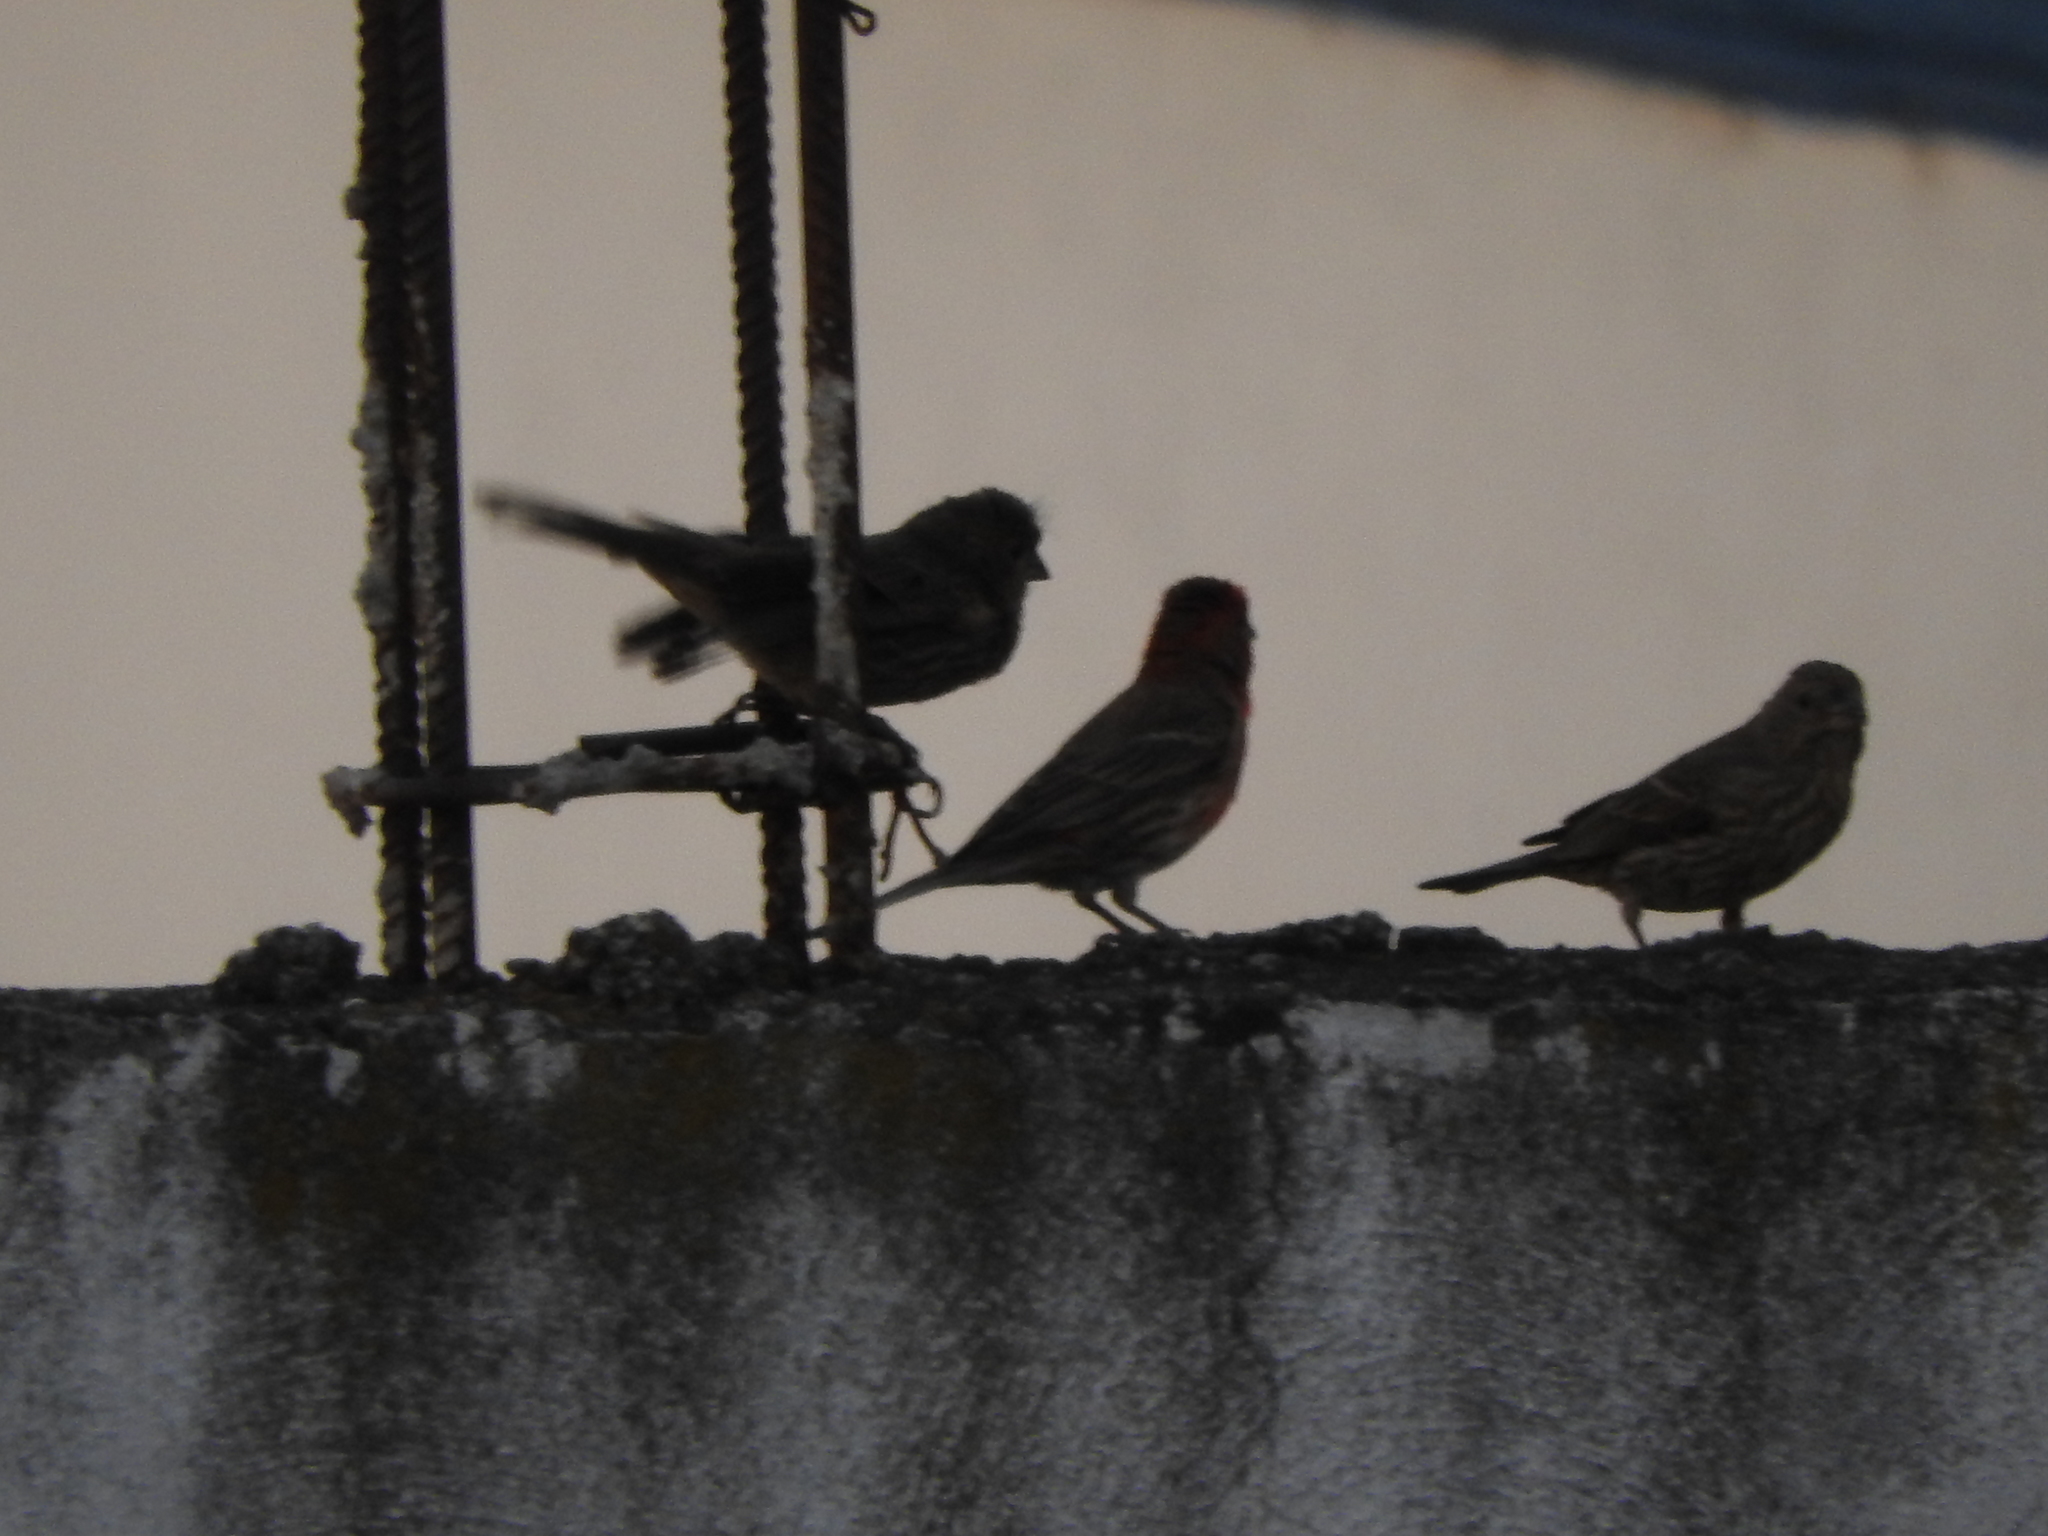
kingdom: Animalia
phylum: Chordata
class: Aves
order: Passeriformes
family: Fringillidae
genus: Haemorhous
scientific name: Haemorhous mexicanus
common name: House finch
